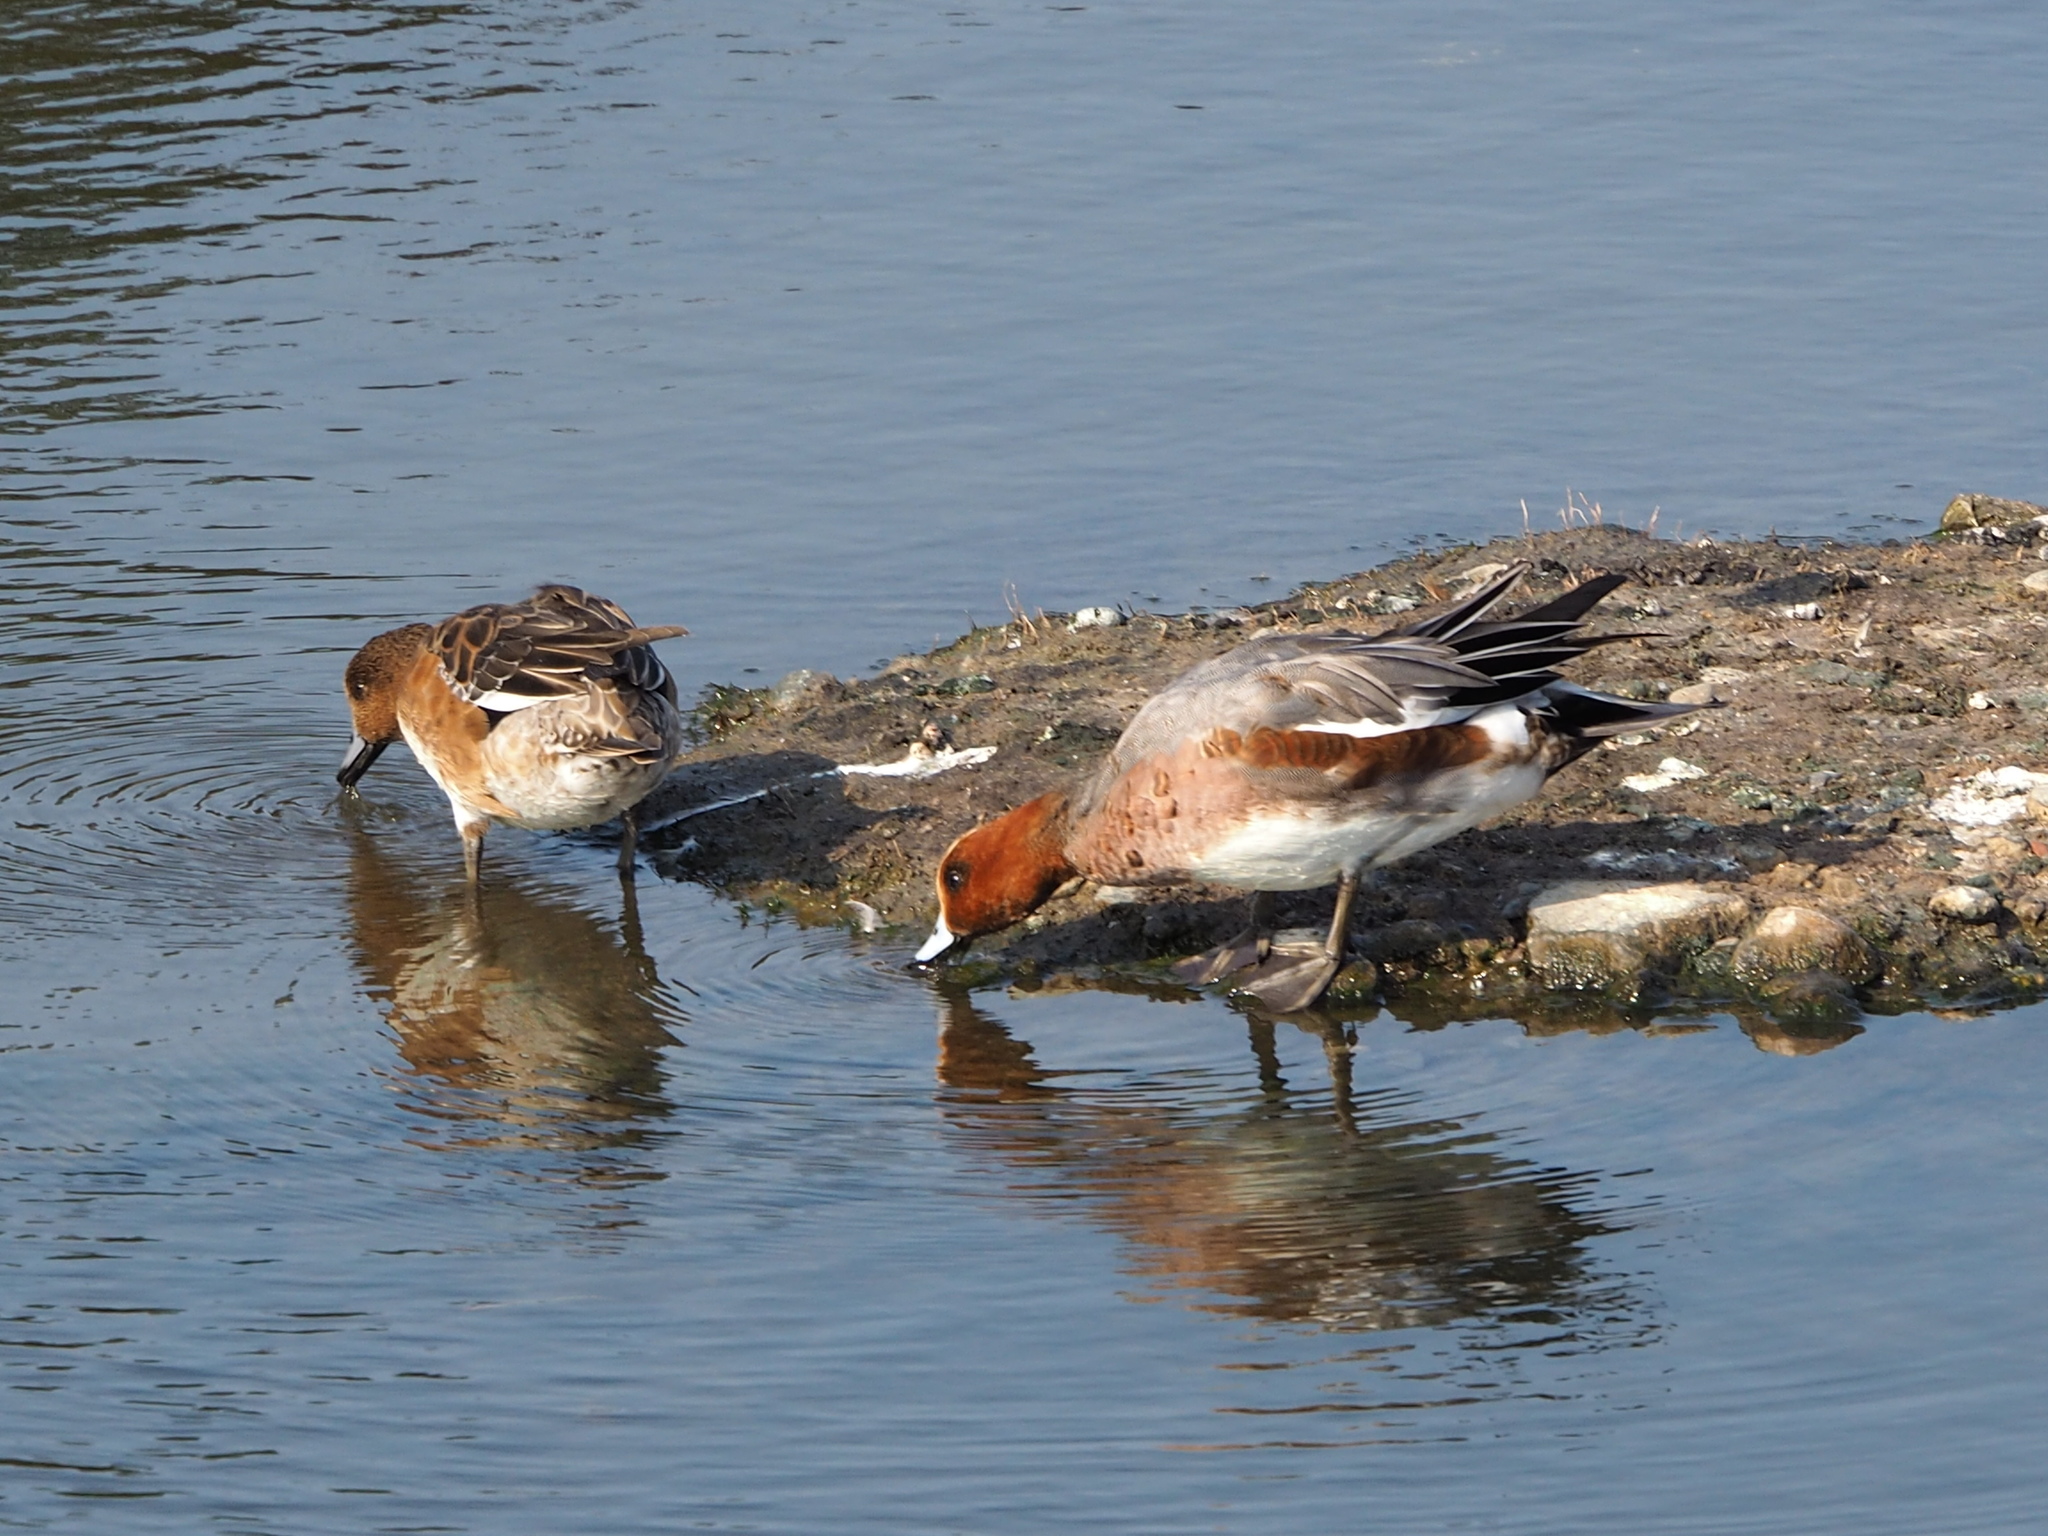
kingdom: Animalia
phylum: Chordata
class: Aves
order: Anseriformes
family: Anatidae
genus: Mareca
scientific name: Mareca penelope
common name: Eurasian wigeon
